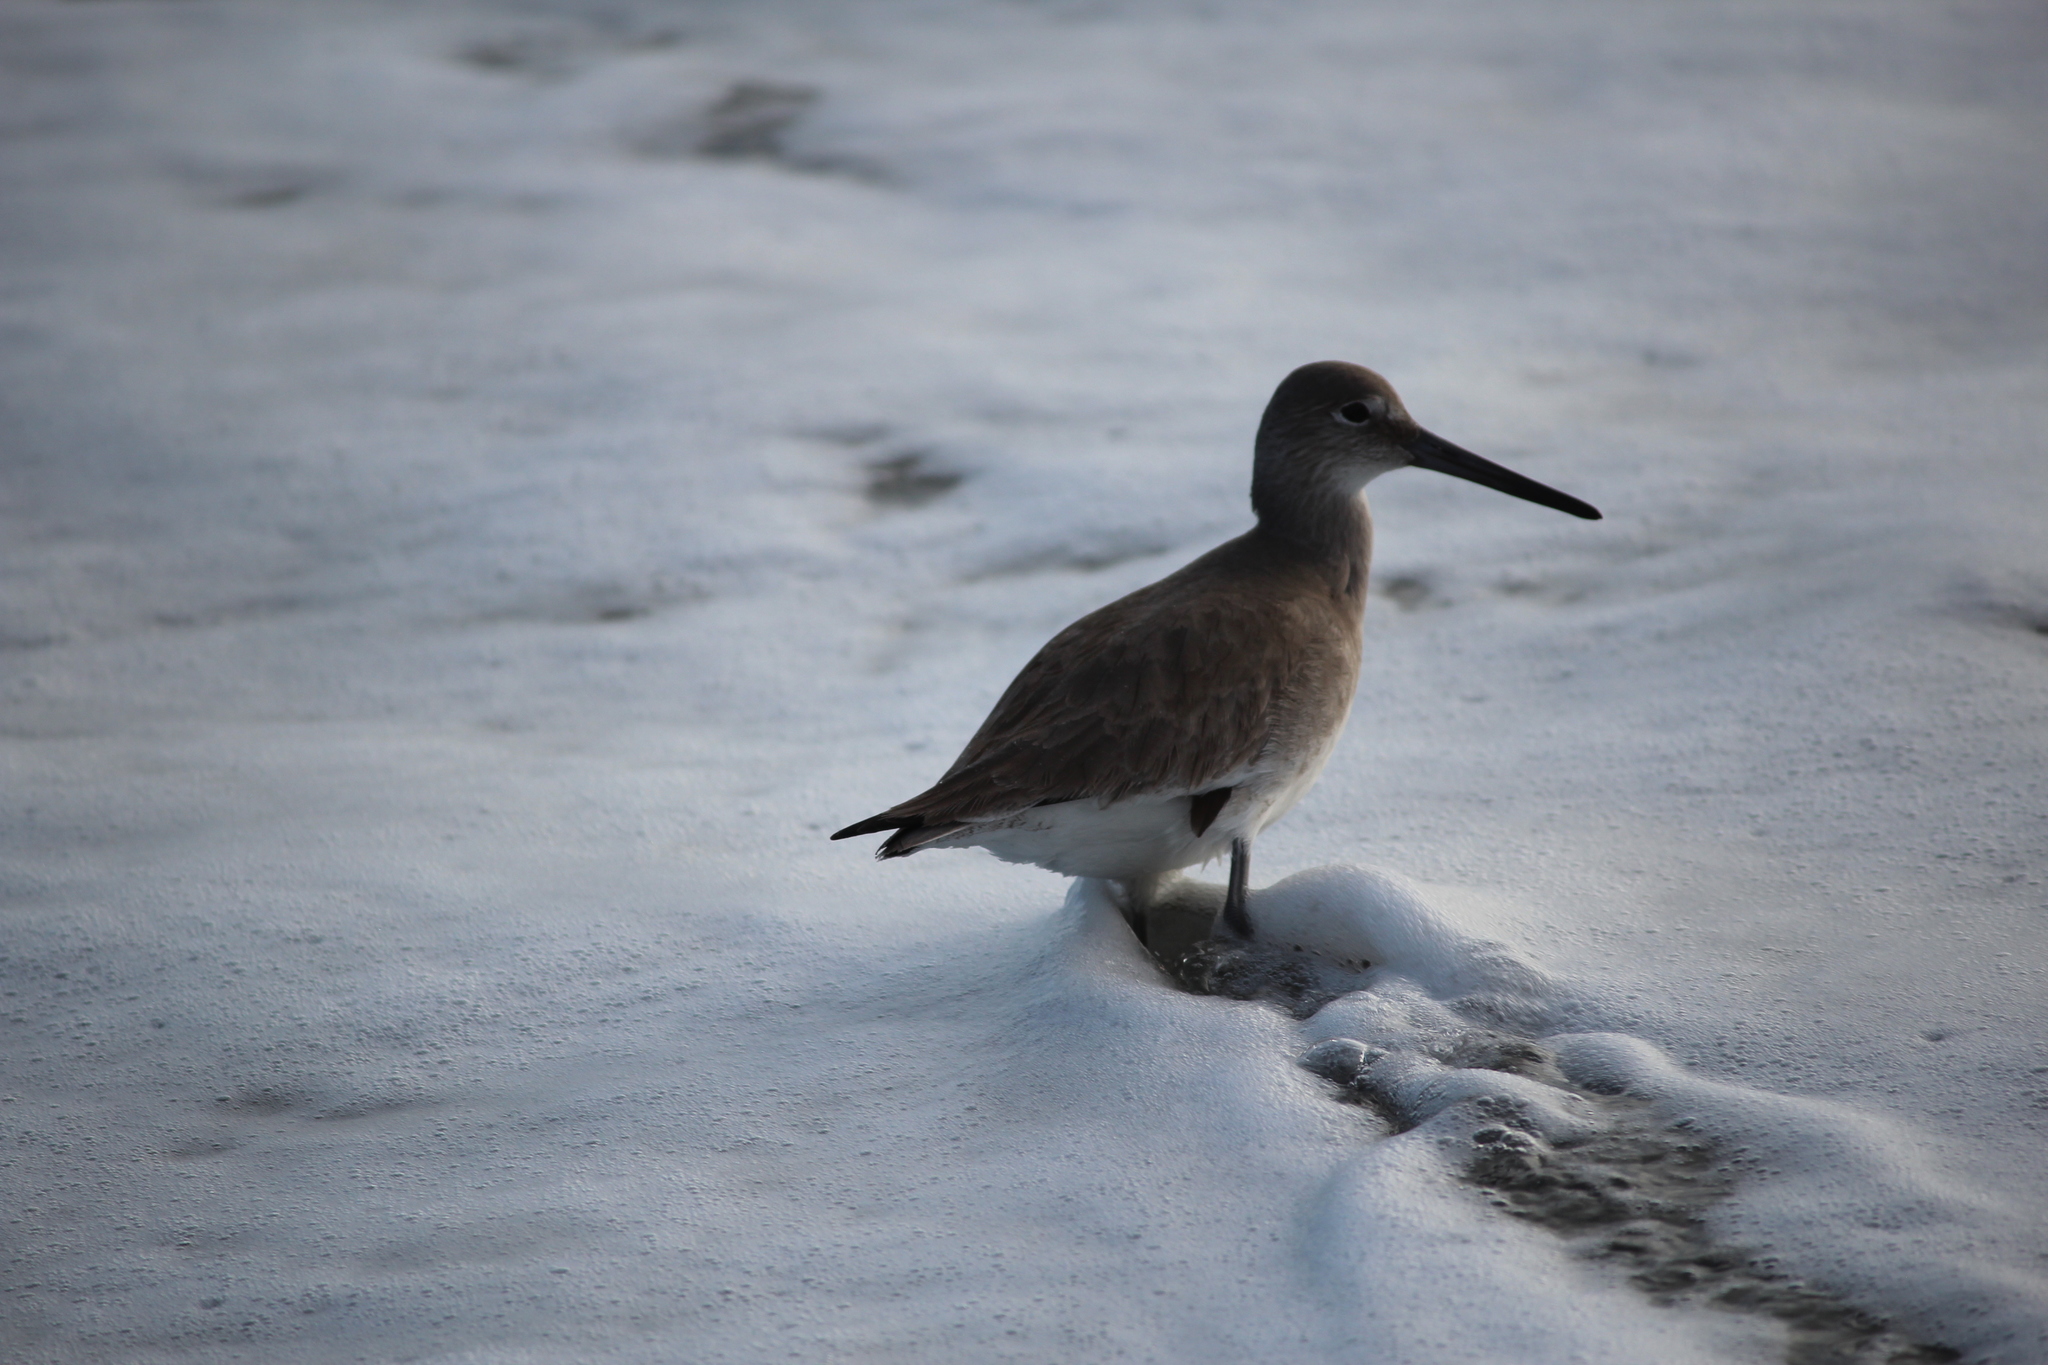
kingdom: Animalia
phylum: Chordata
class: Aves
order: Charadriiformes
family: Scolopacidae
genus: Tringa
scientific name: Tringa semipalmata
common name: Willet
